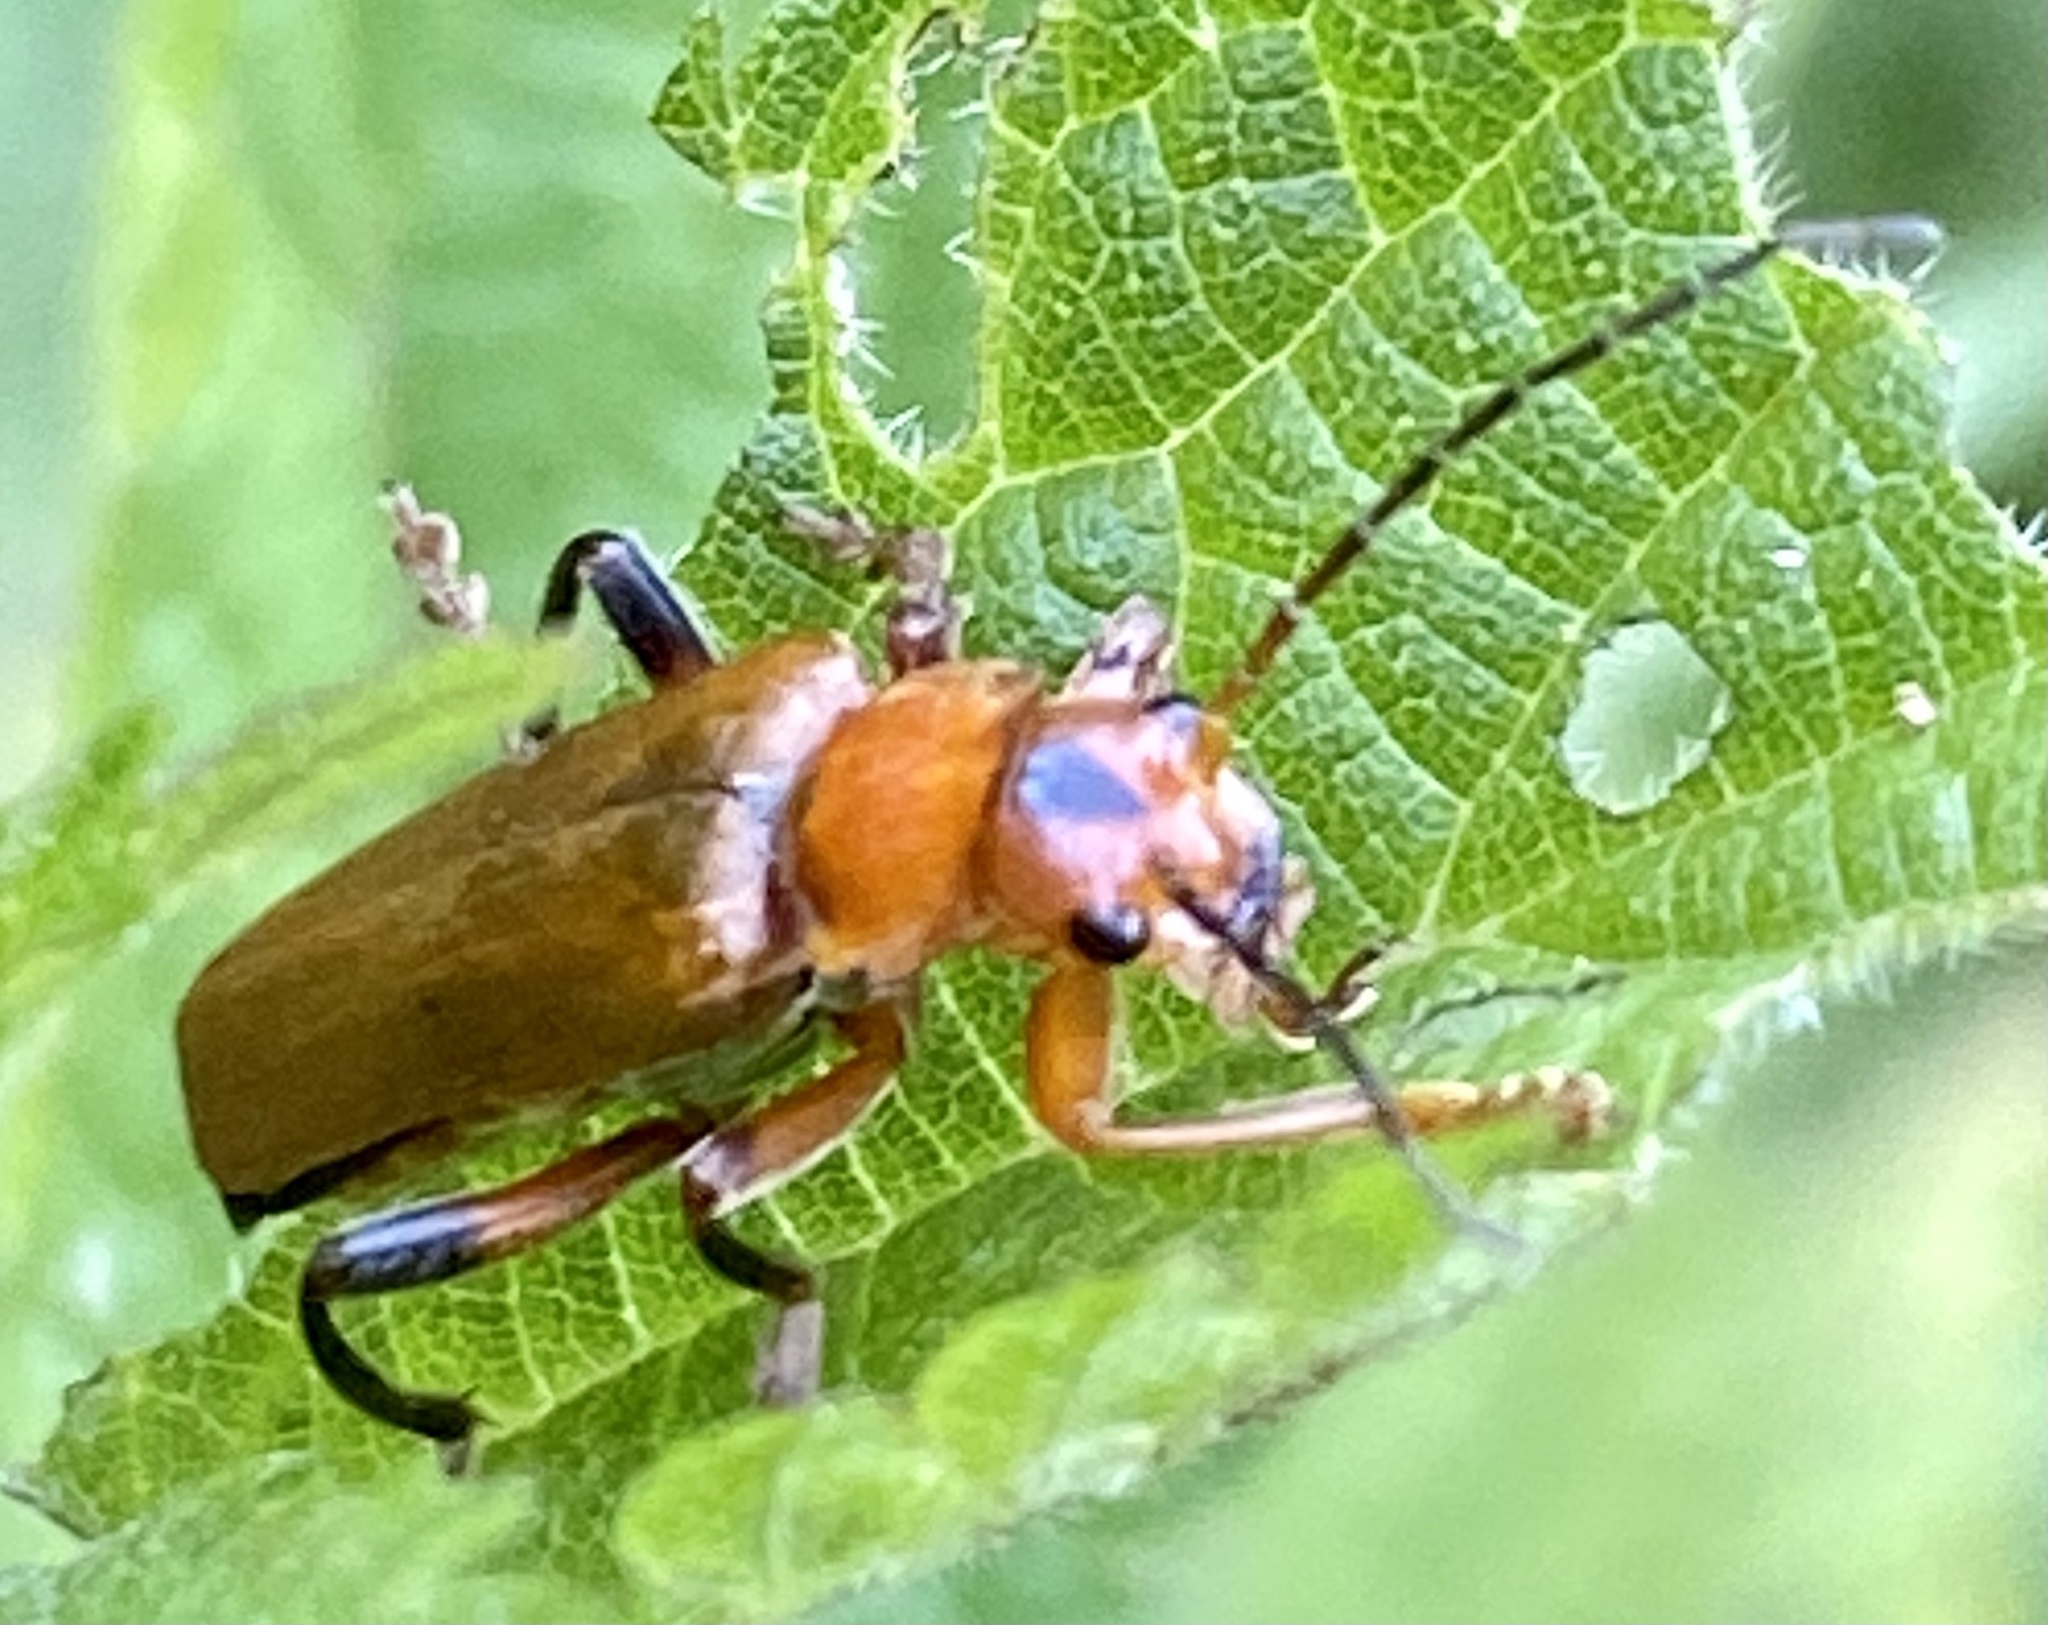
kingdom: Animalia
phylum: Arthropoda
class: Insecta
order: Coleoptera
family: Cantharidae
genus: Cantharis
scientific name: Cantharis livida
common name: Livid soldier beetle
